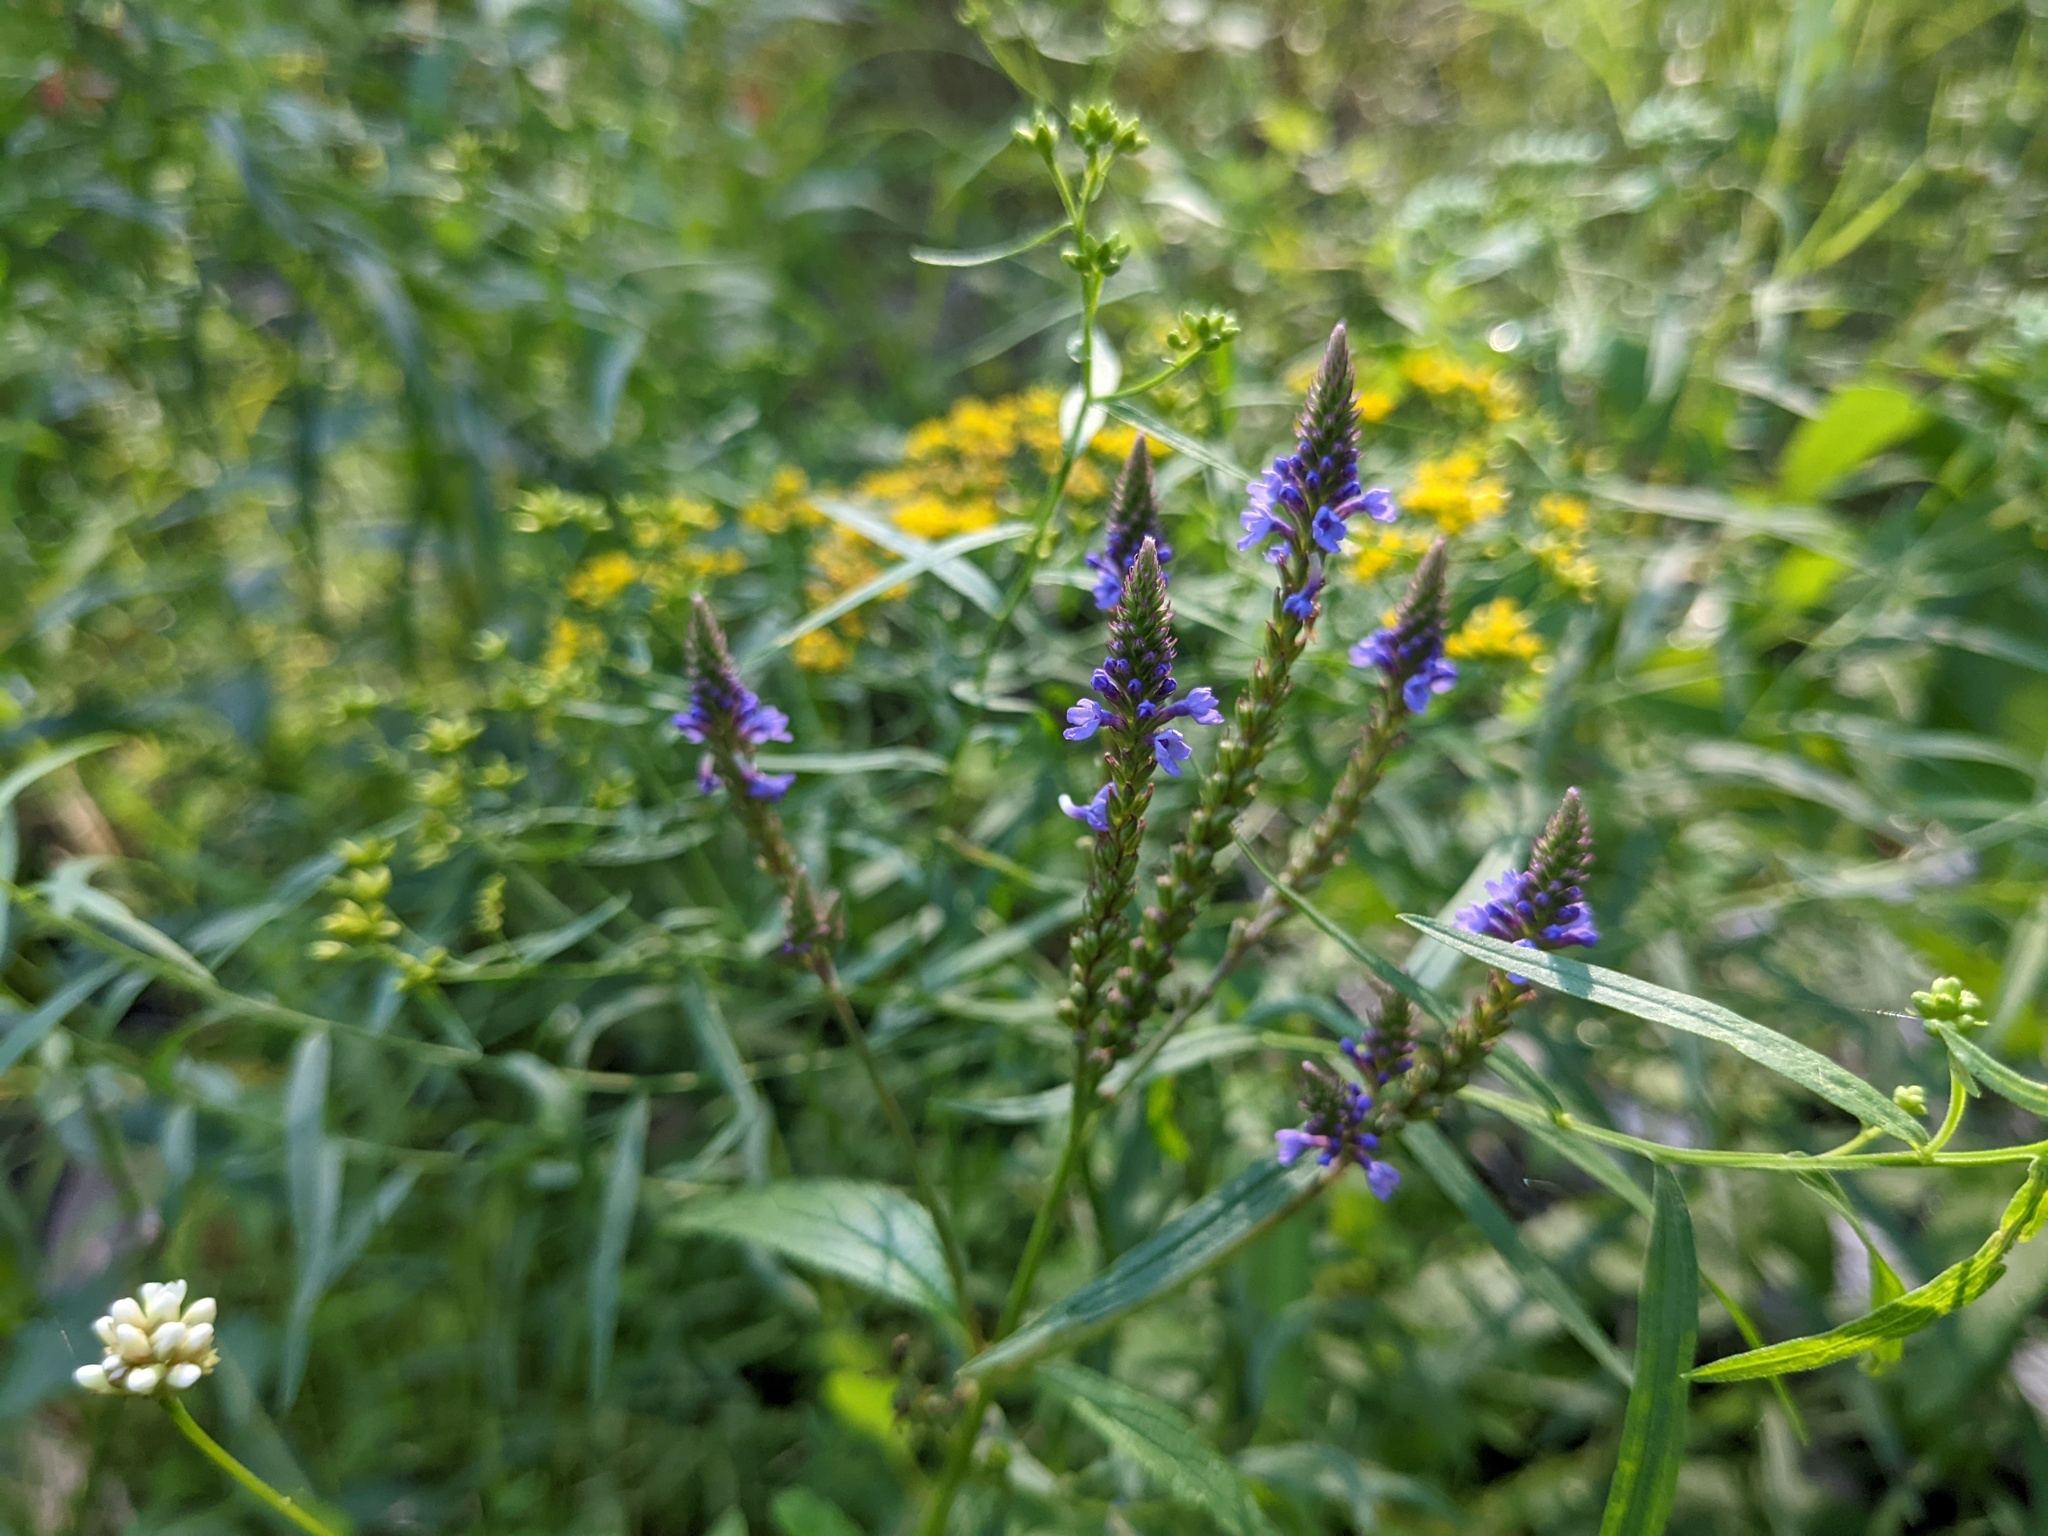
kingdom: Plantae
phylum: Tracheophyta
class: Magnoliopsida
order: Lamiales
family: Verbenaceae
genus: Verbena
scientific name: Verbena hastata
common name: American blue vervain
